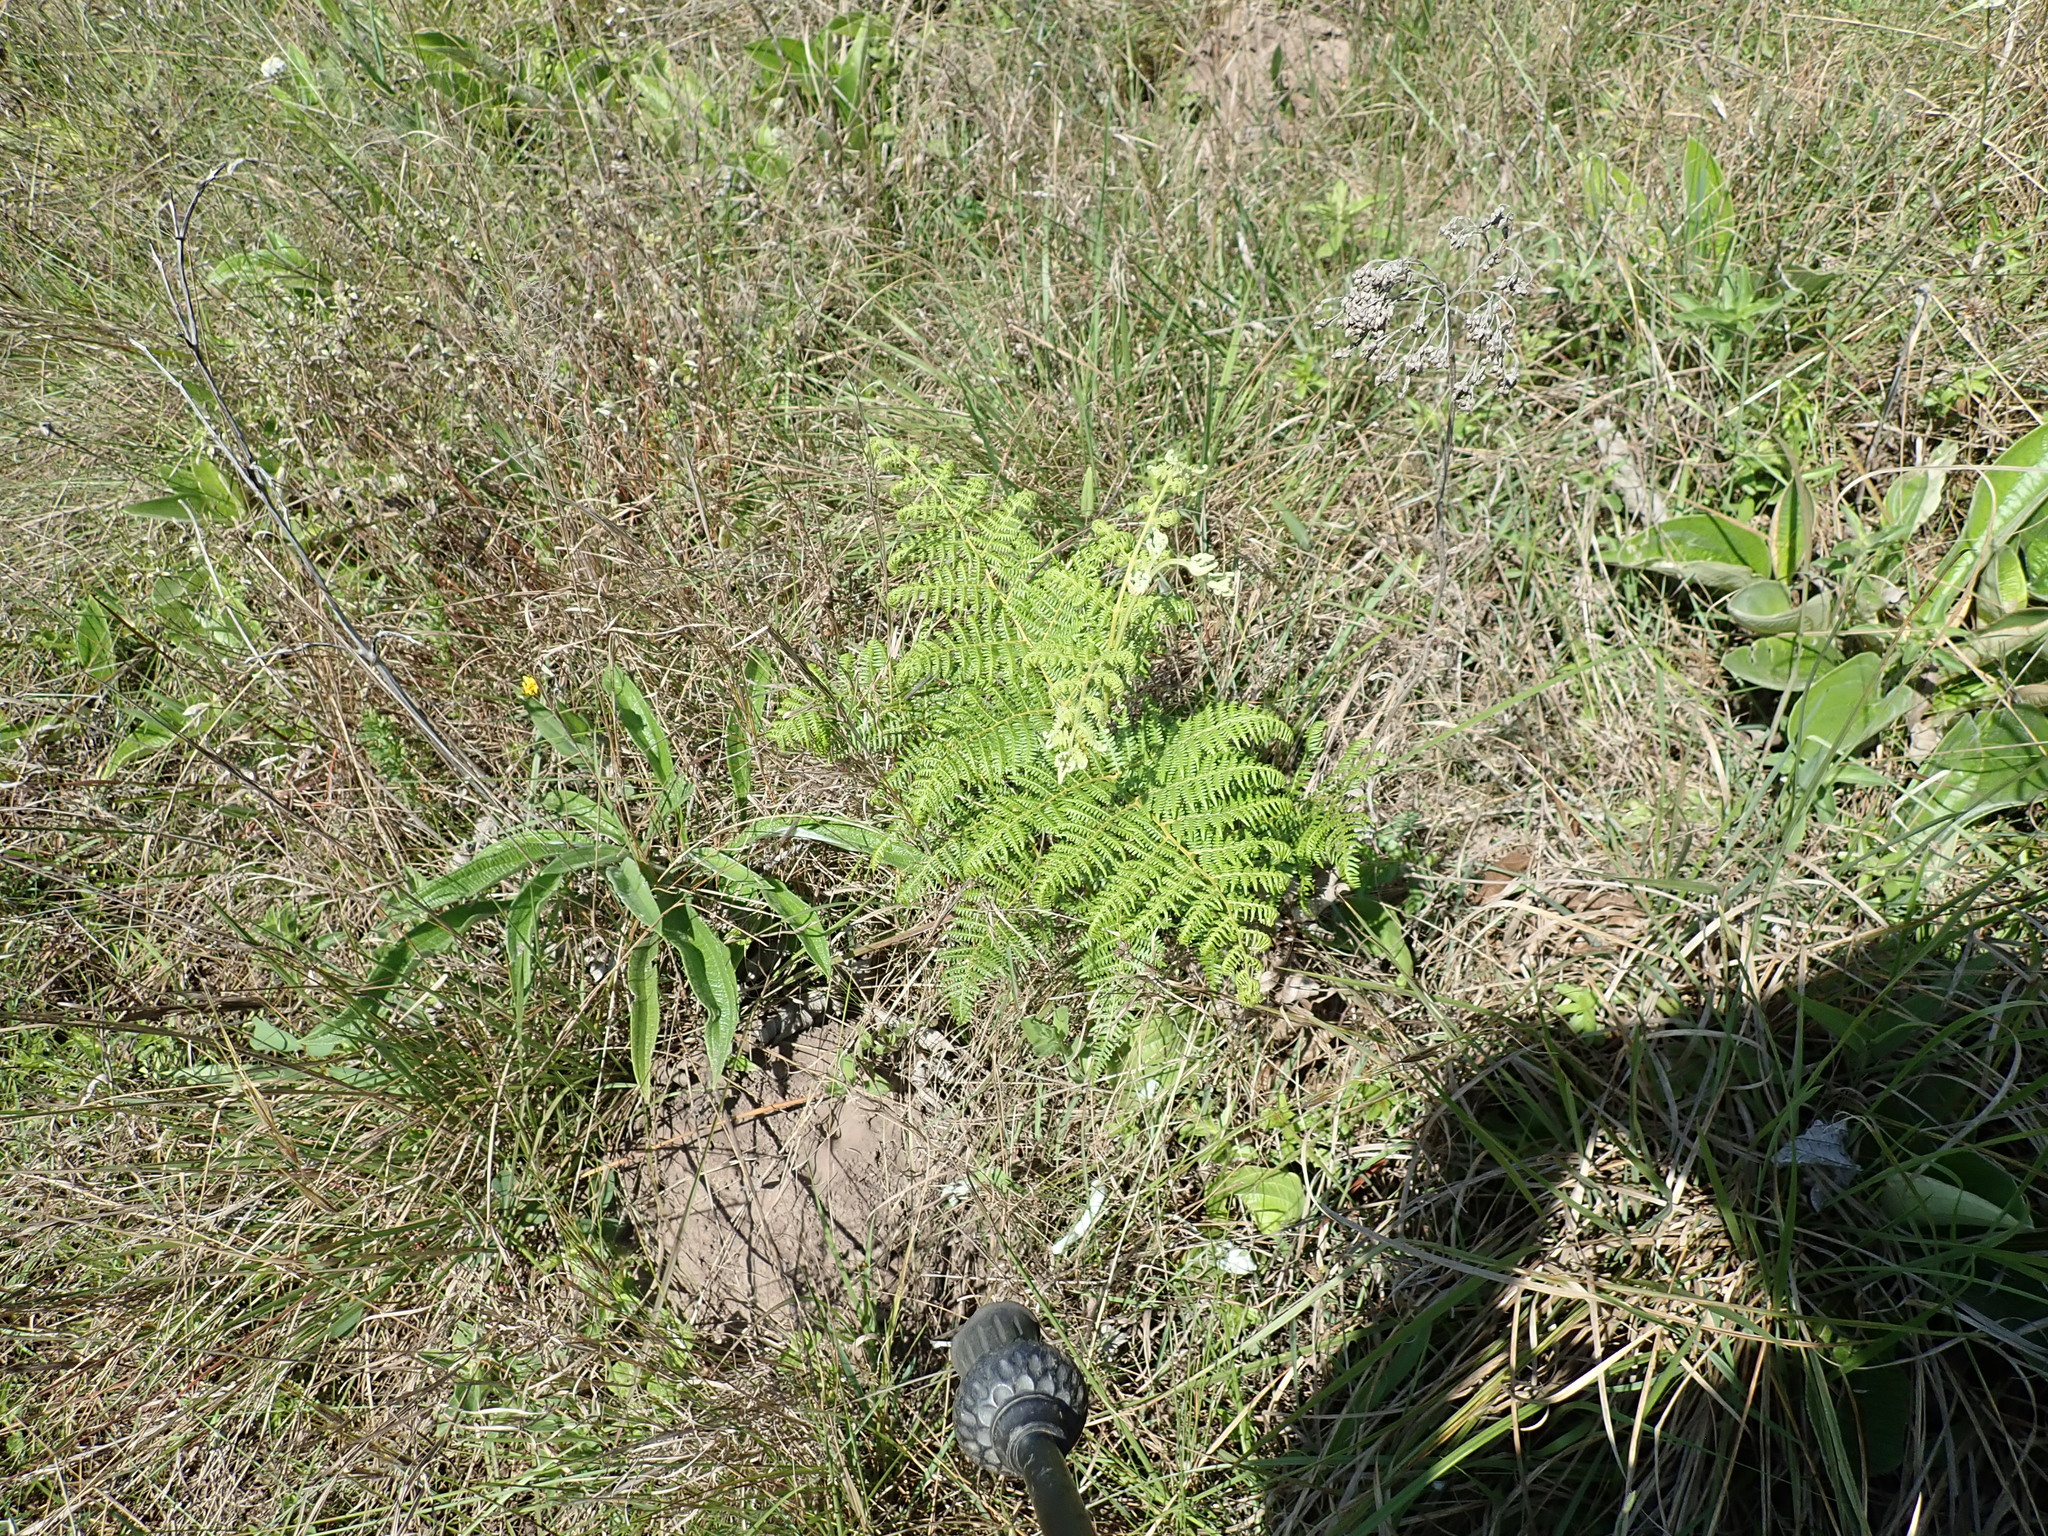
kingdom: Plantae
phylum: Tracheophyta
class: Polypodiopsida
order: Polypodiales
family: Dennstaedtiaceae
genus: Pteridium
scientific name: Pteridium aquilinum
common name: Bracken
